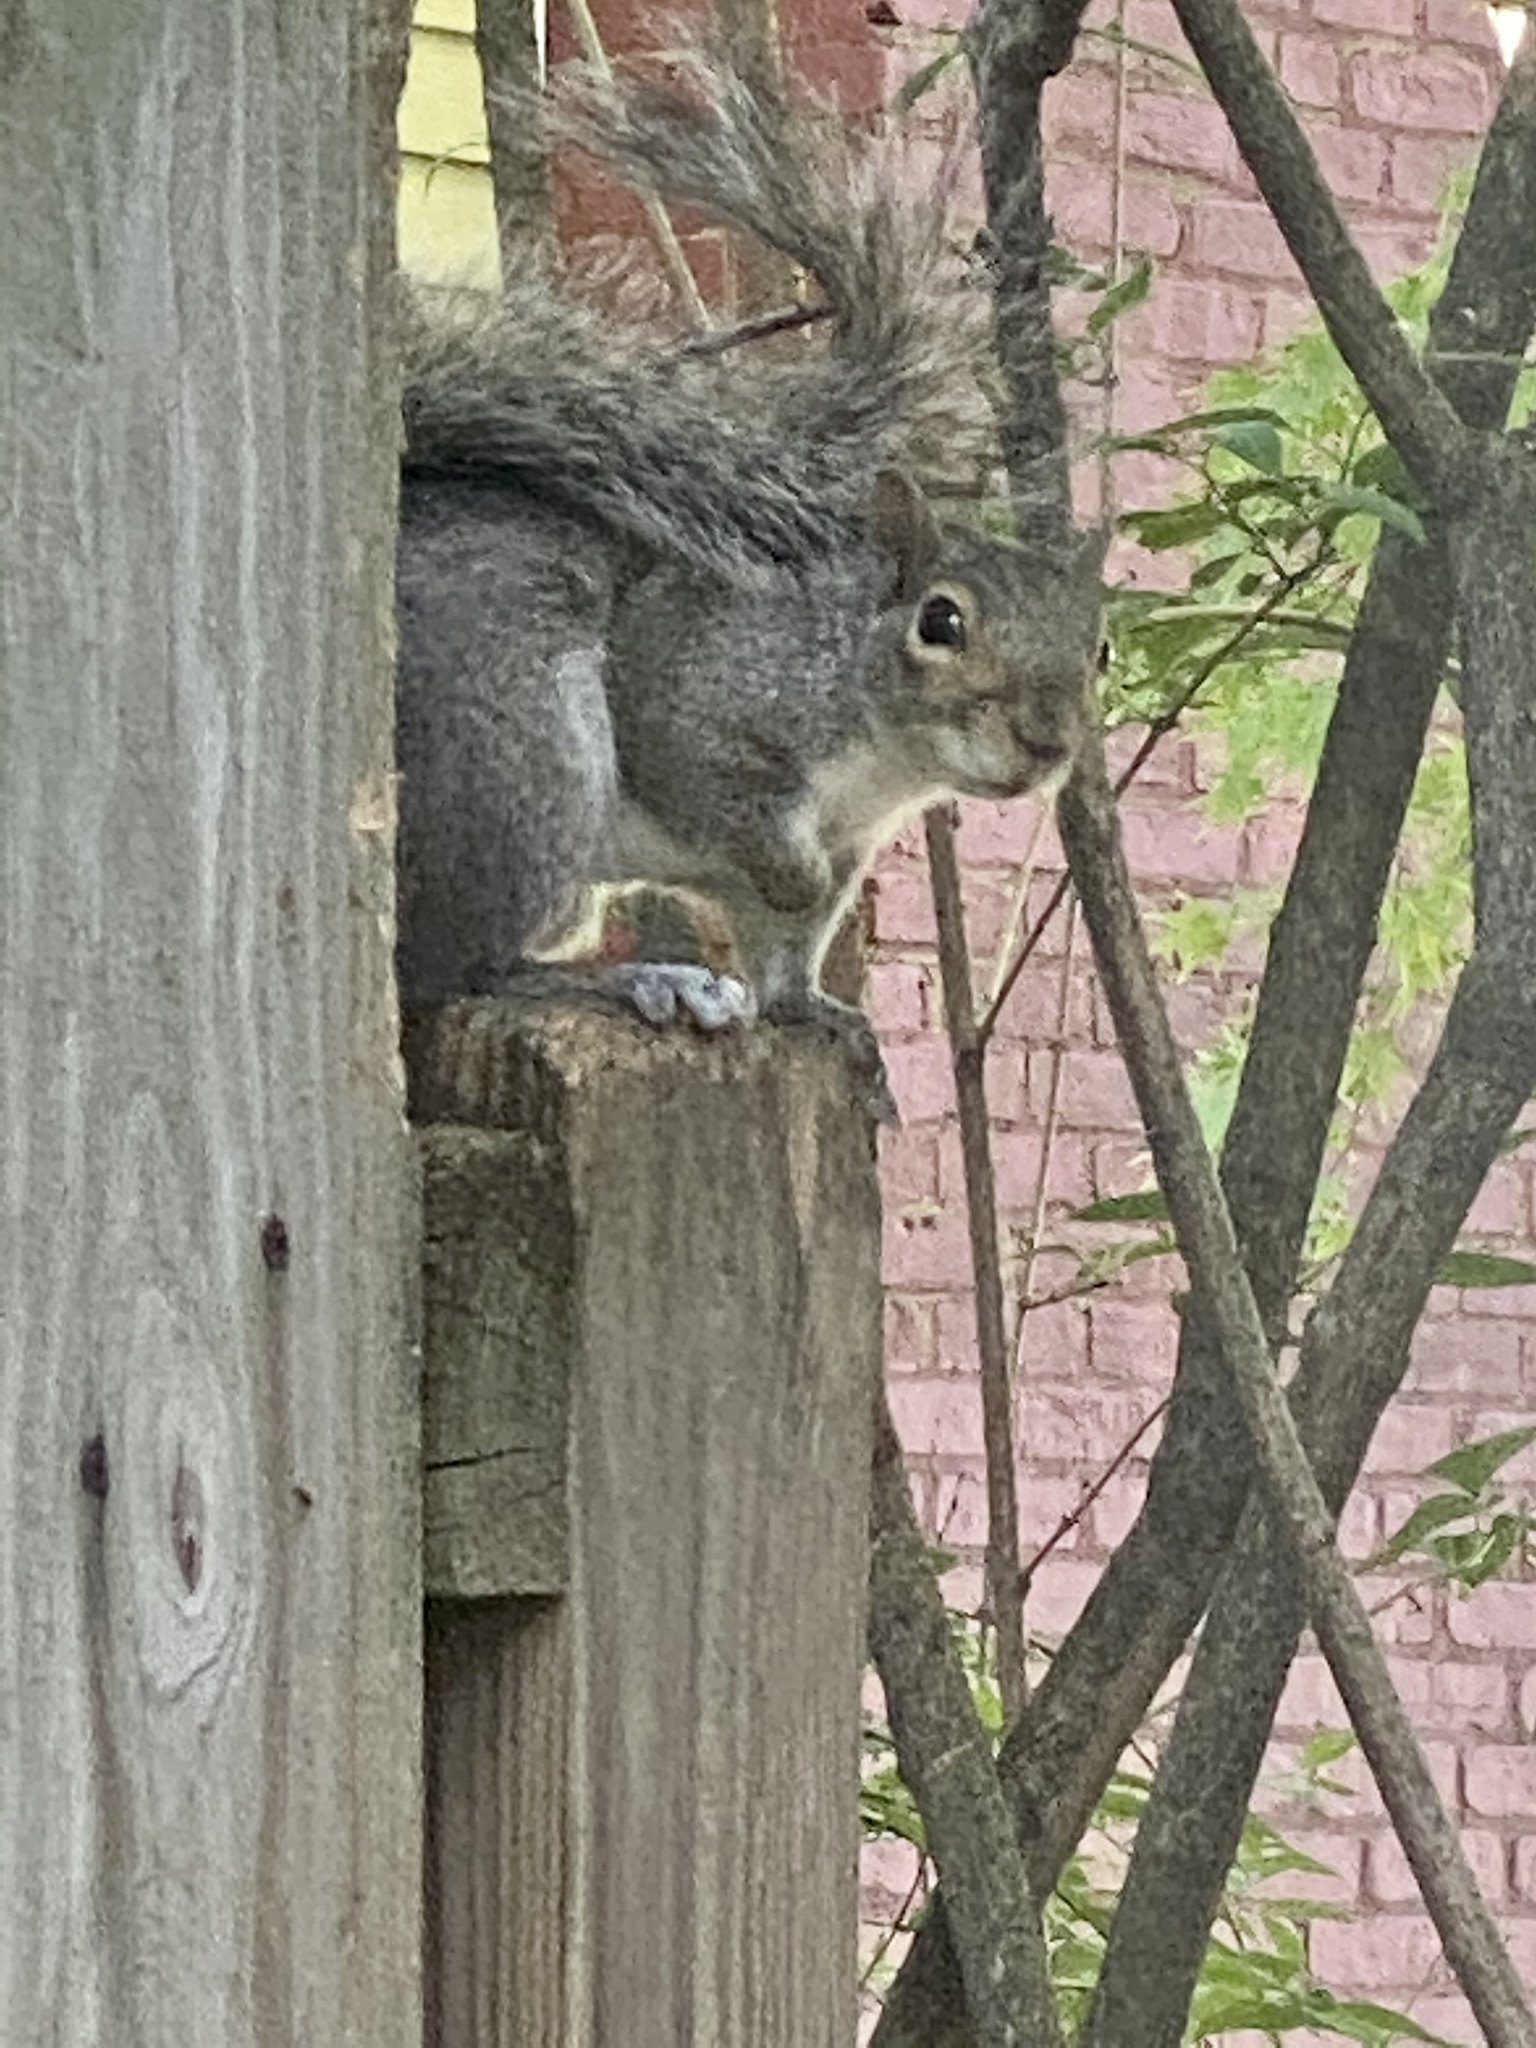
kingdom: Animalia
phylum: Chordata
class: Mammalia
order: Rodentia
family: Sciuridae
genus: Sciurus
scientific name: Sciurus carolinensis
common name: Eastern gray squirrel
